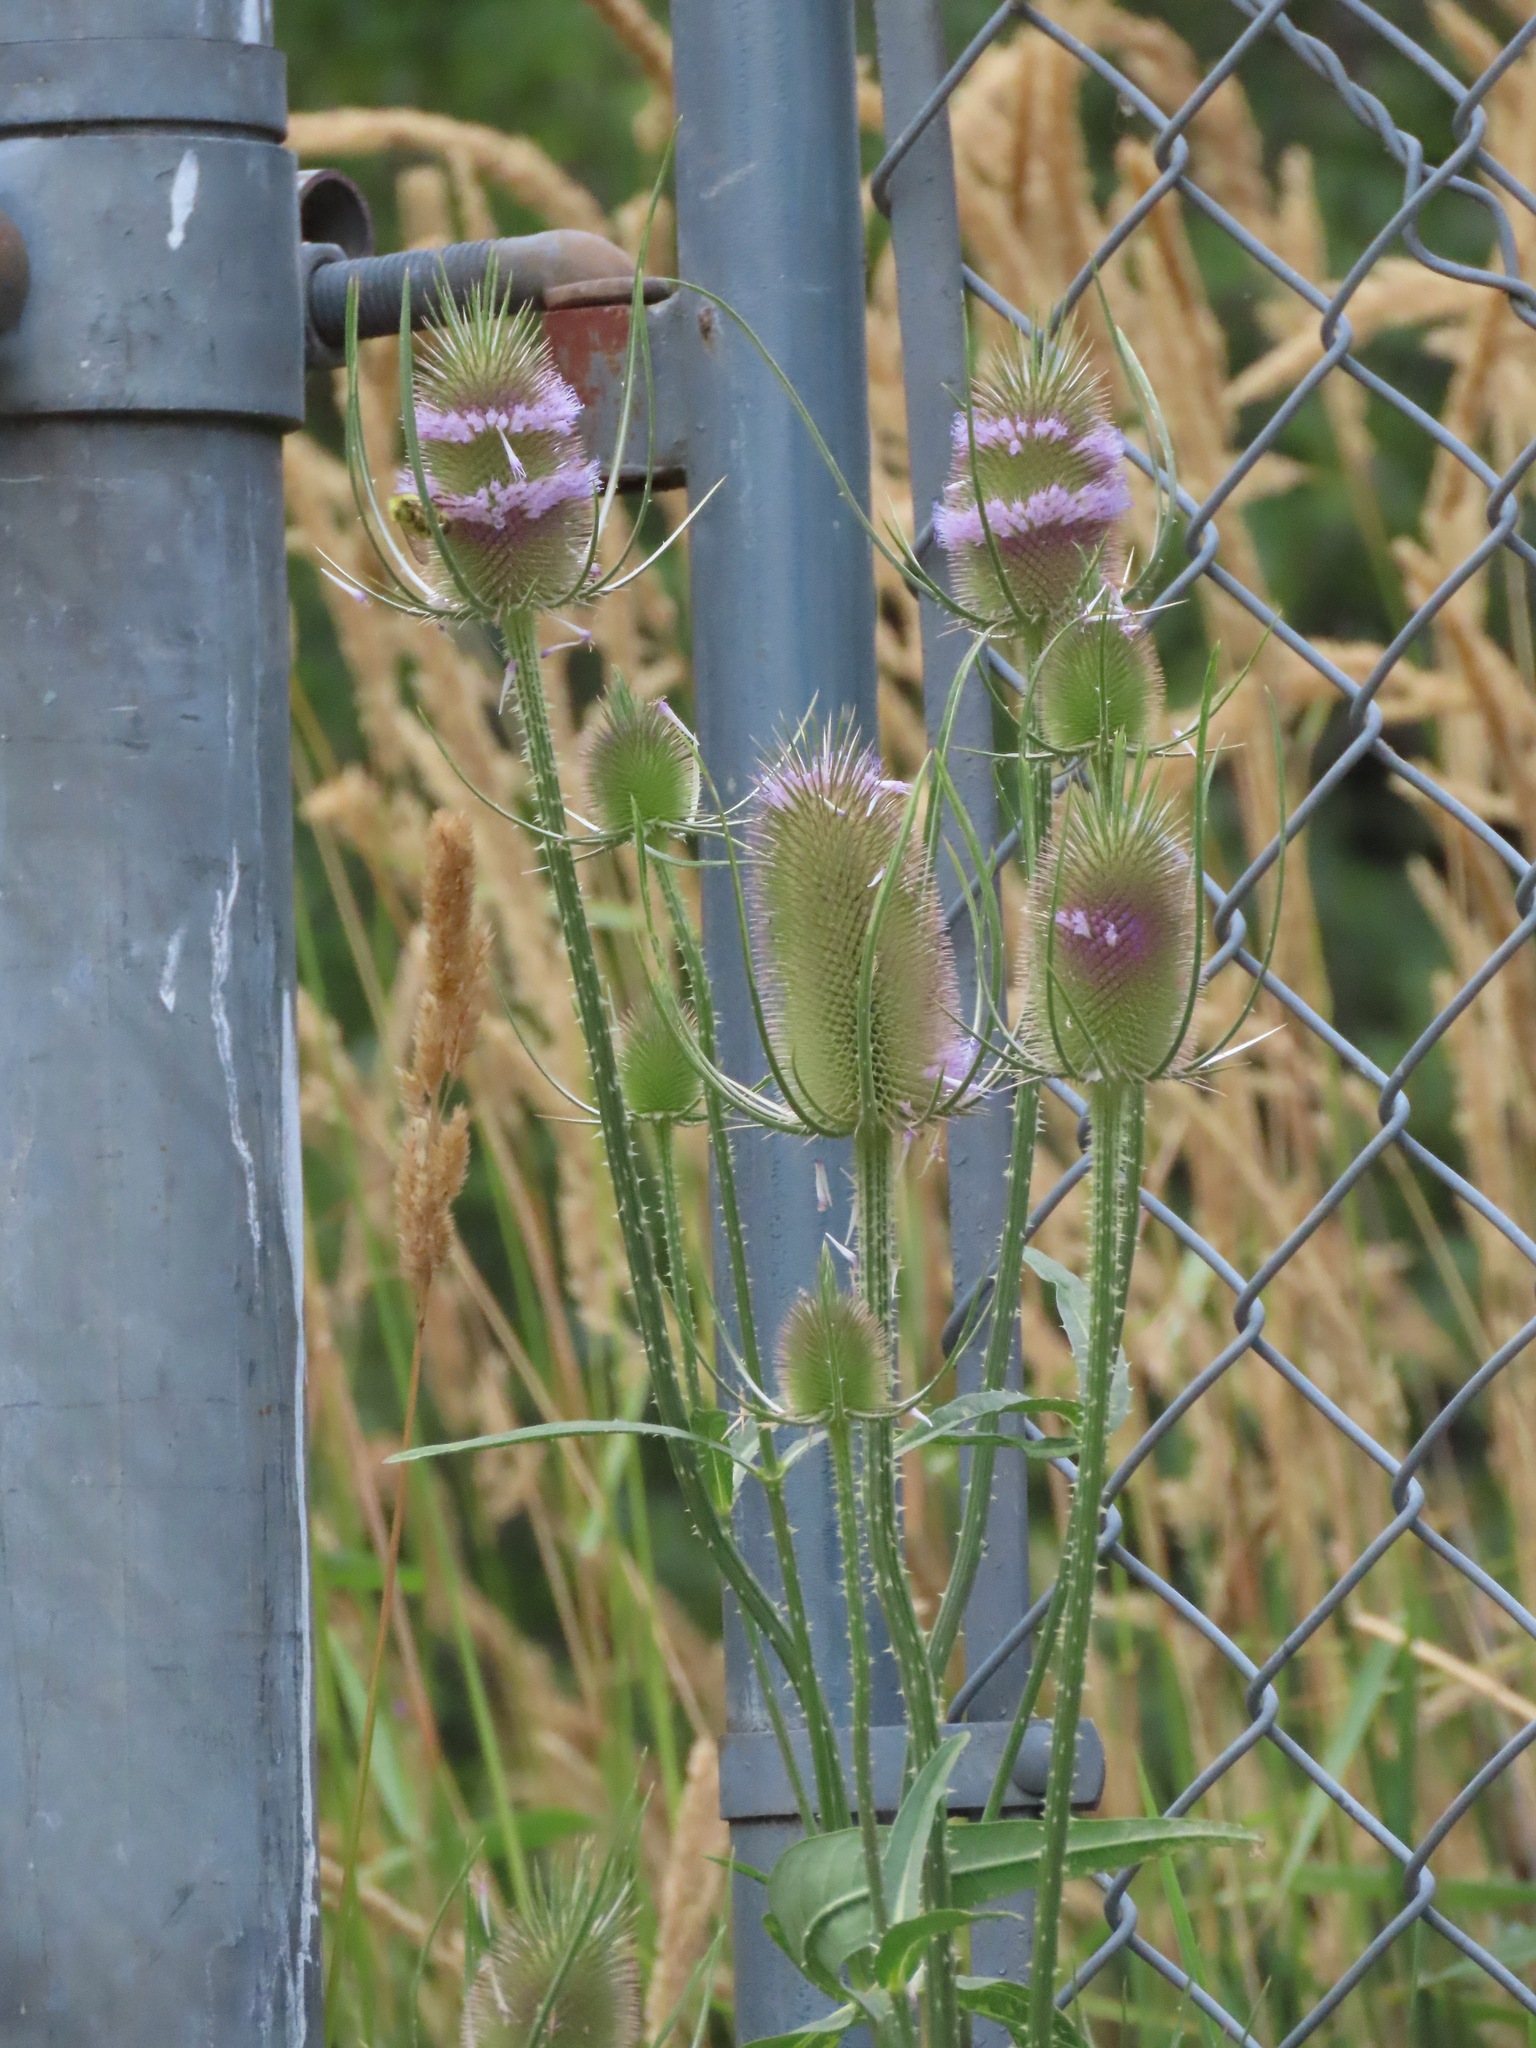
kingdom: Plantae
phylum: Tracheophyta
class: Magnoliopsida
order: Dipsacales
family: Caprifoliaceae
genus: Dipsacus
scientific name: Dipsacus fullonum
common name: Teasel
